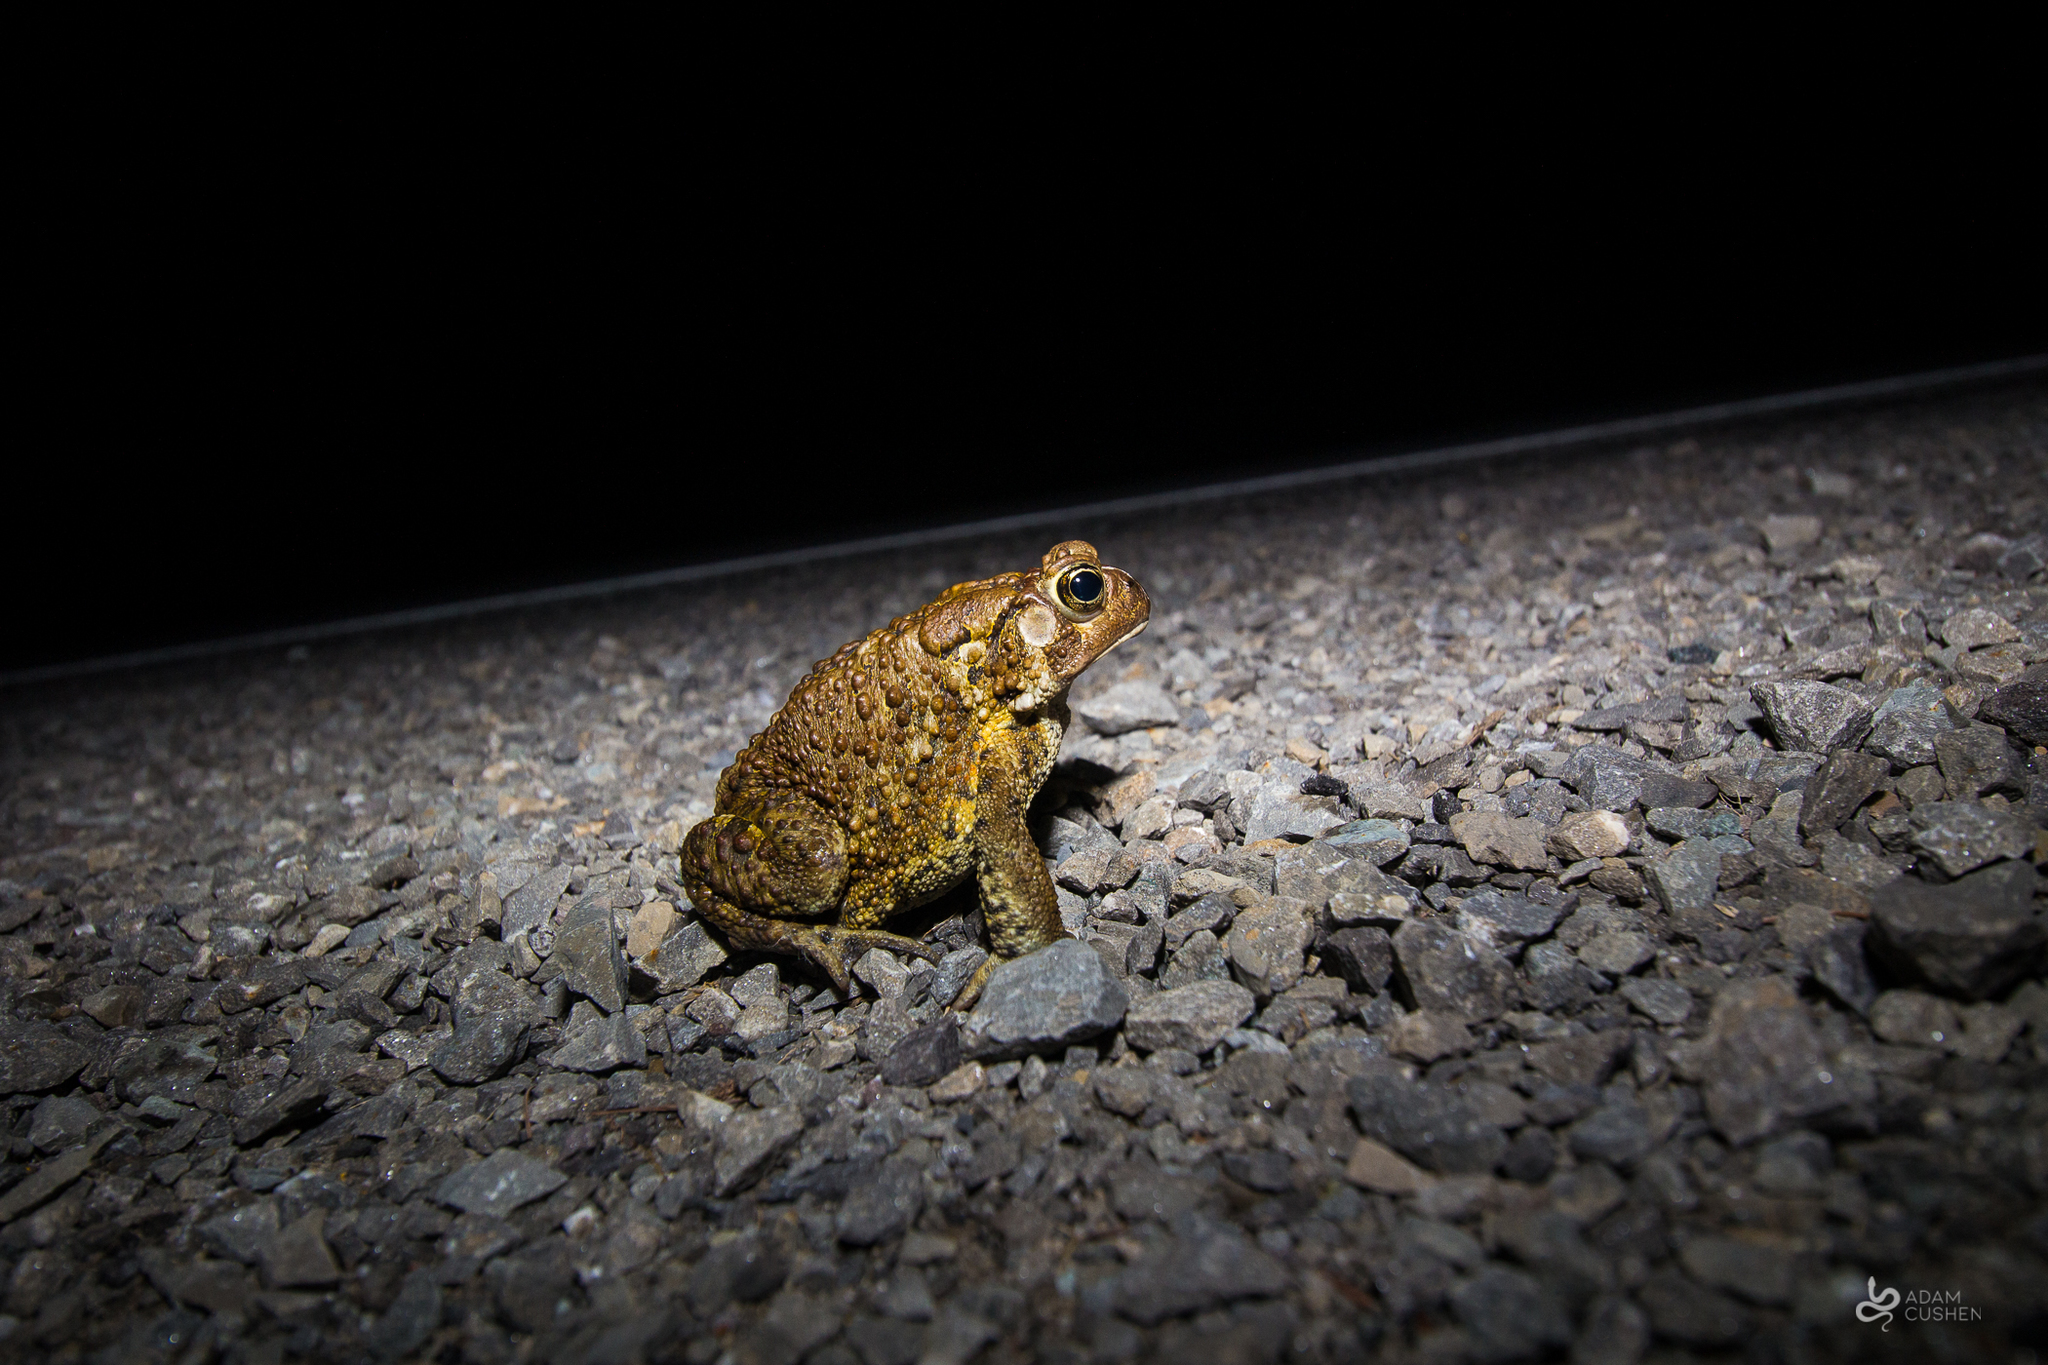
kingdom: Animalia
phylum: Chordata
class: Amphibia
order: Anura
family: Bufonidae
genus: Anaxyrus
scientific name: Anaxyrus americanus
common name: American toad
